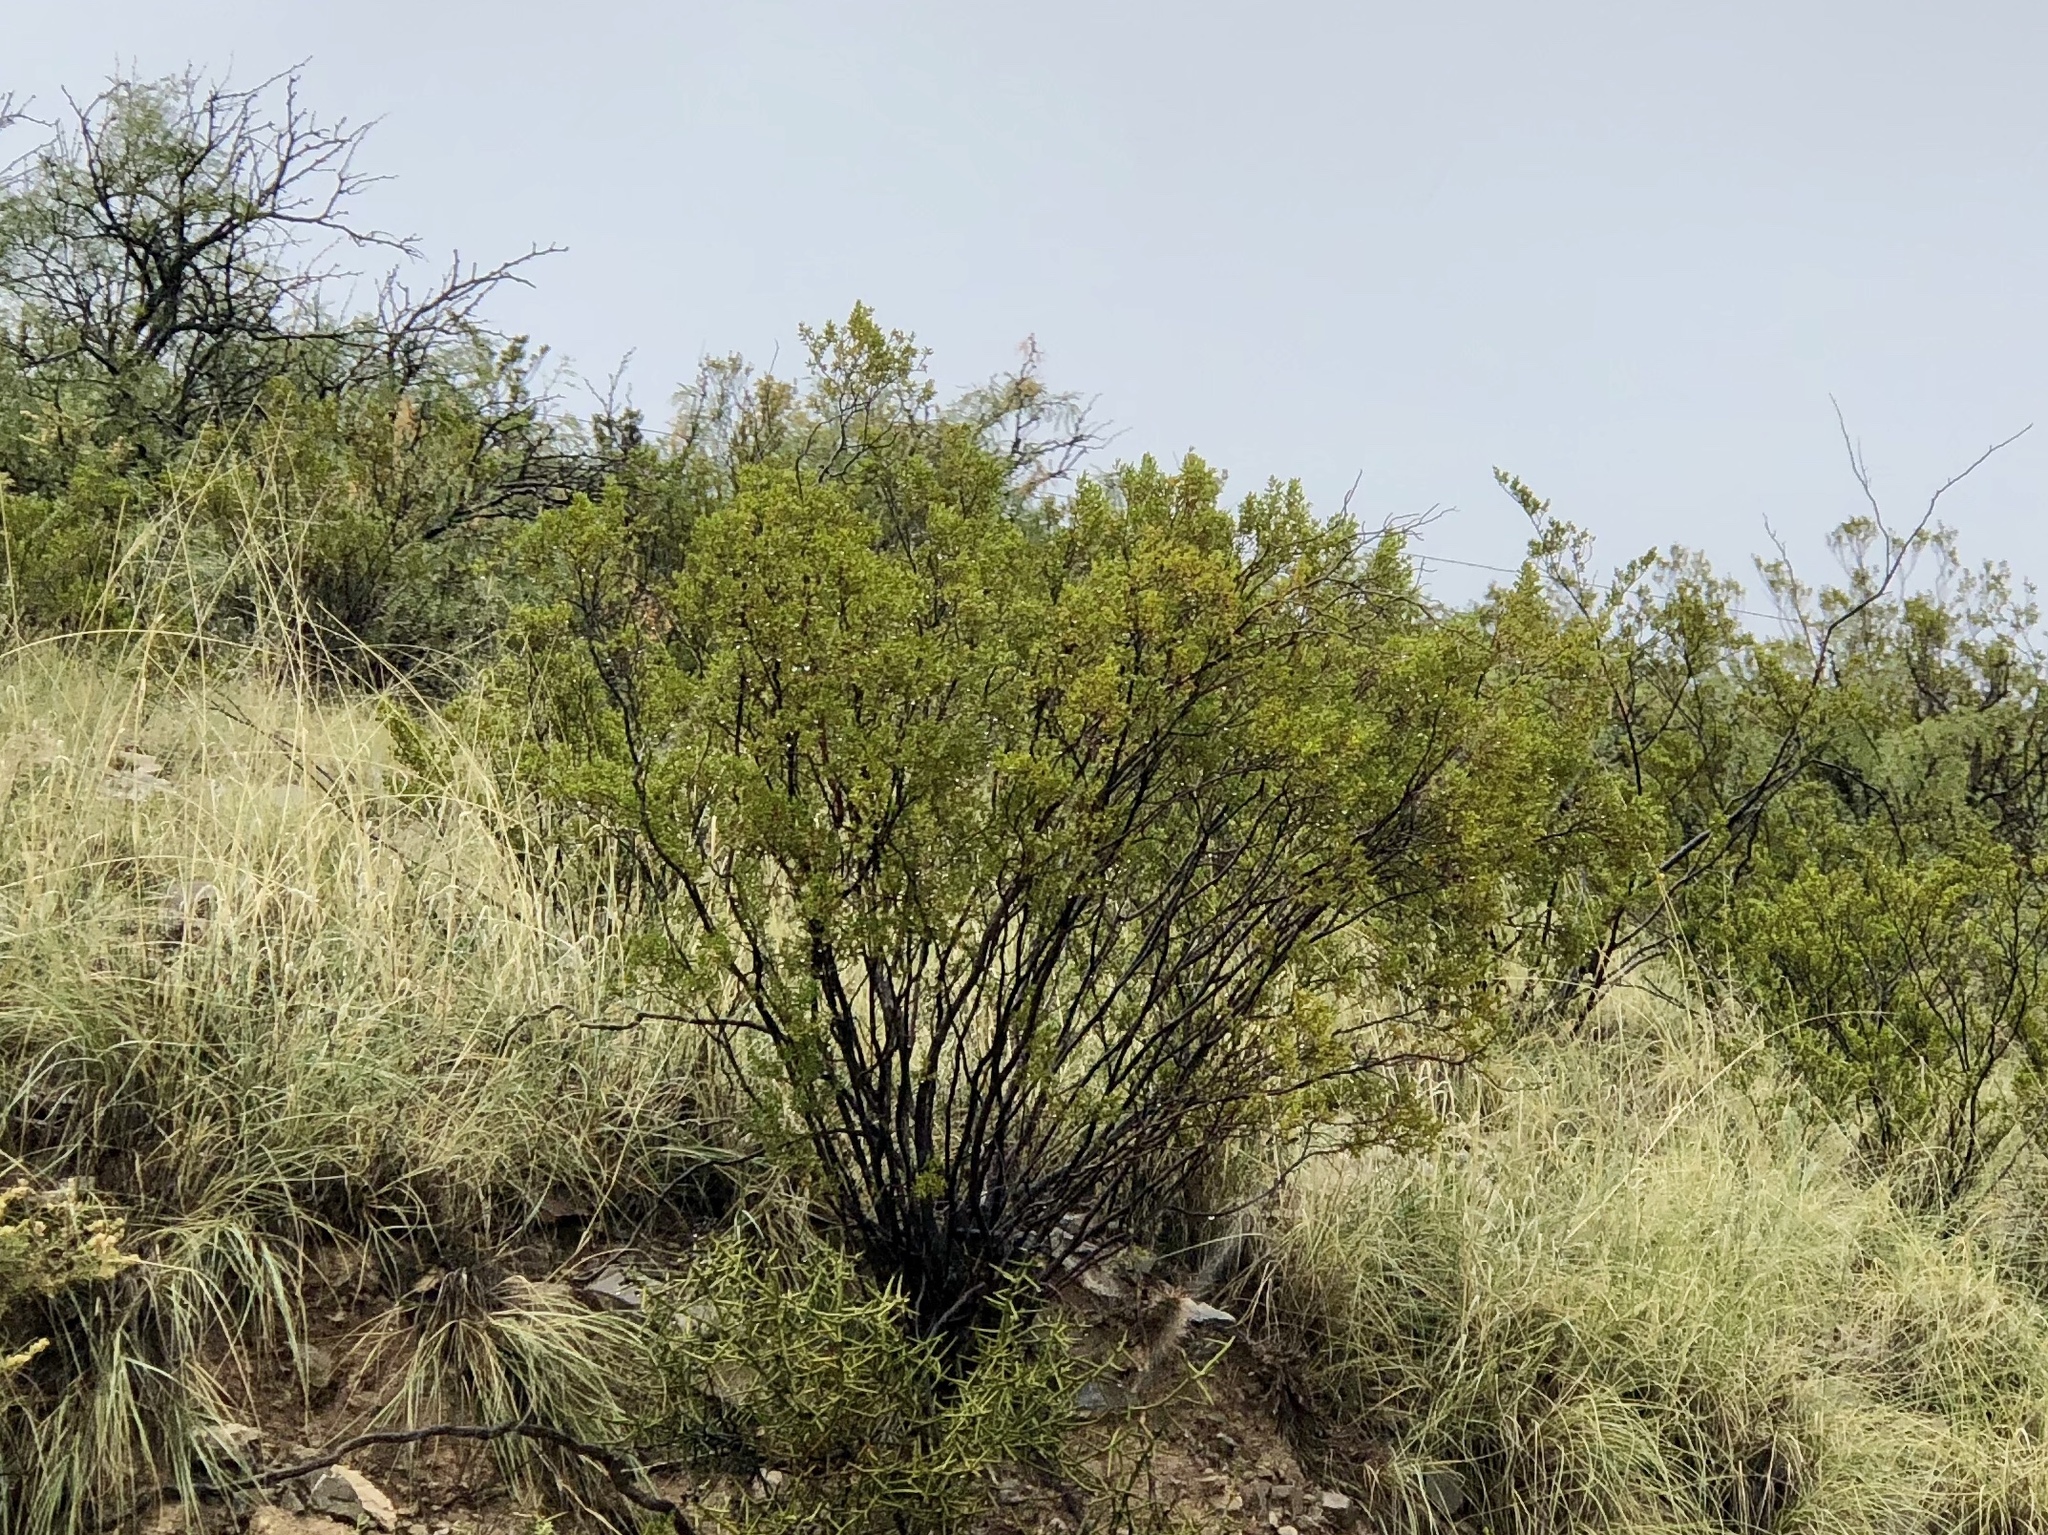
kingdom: Plantae
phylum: Tracheophyta
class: Magnoliopsida
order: Zygophyllales
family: Zygophyllaceae
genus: Larrea
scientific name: Larrea tridentata
